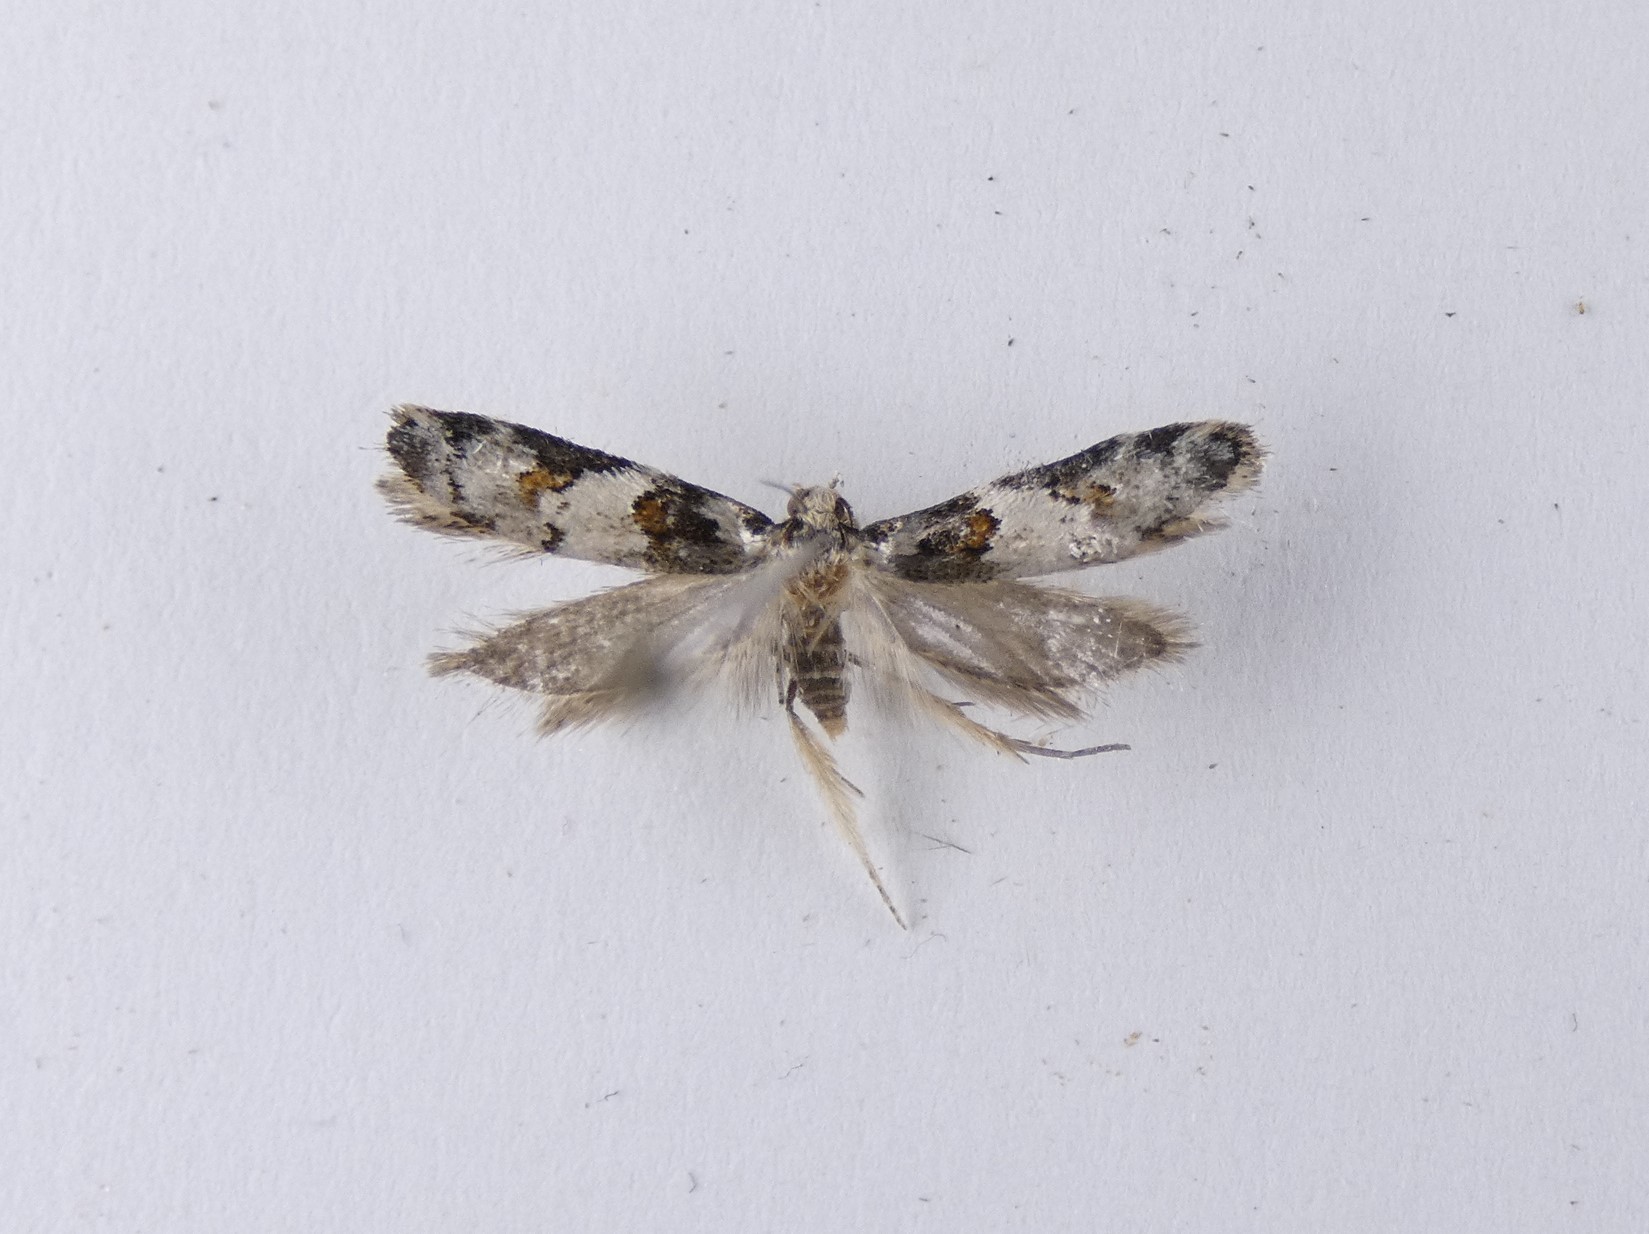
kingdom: Animalia
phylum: Arthropoda
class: Insecta
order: Lepidoptera
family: Oecophoridae
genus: Trachypepla
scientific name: Trachypepla galaxias
